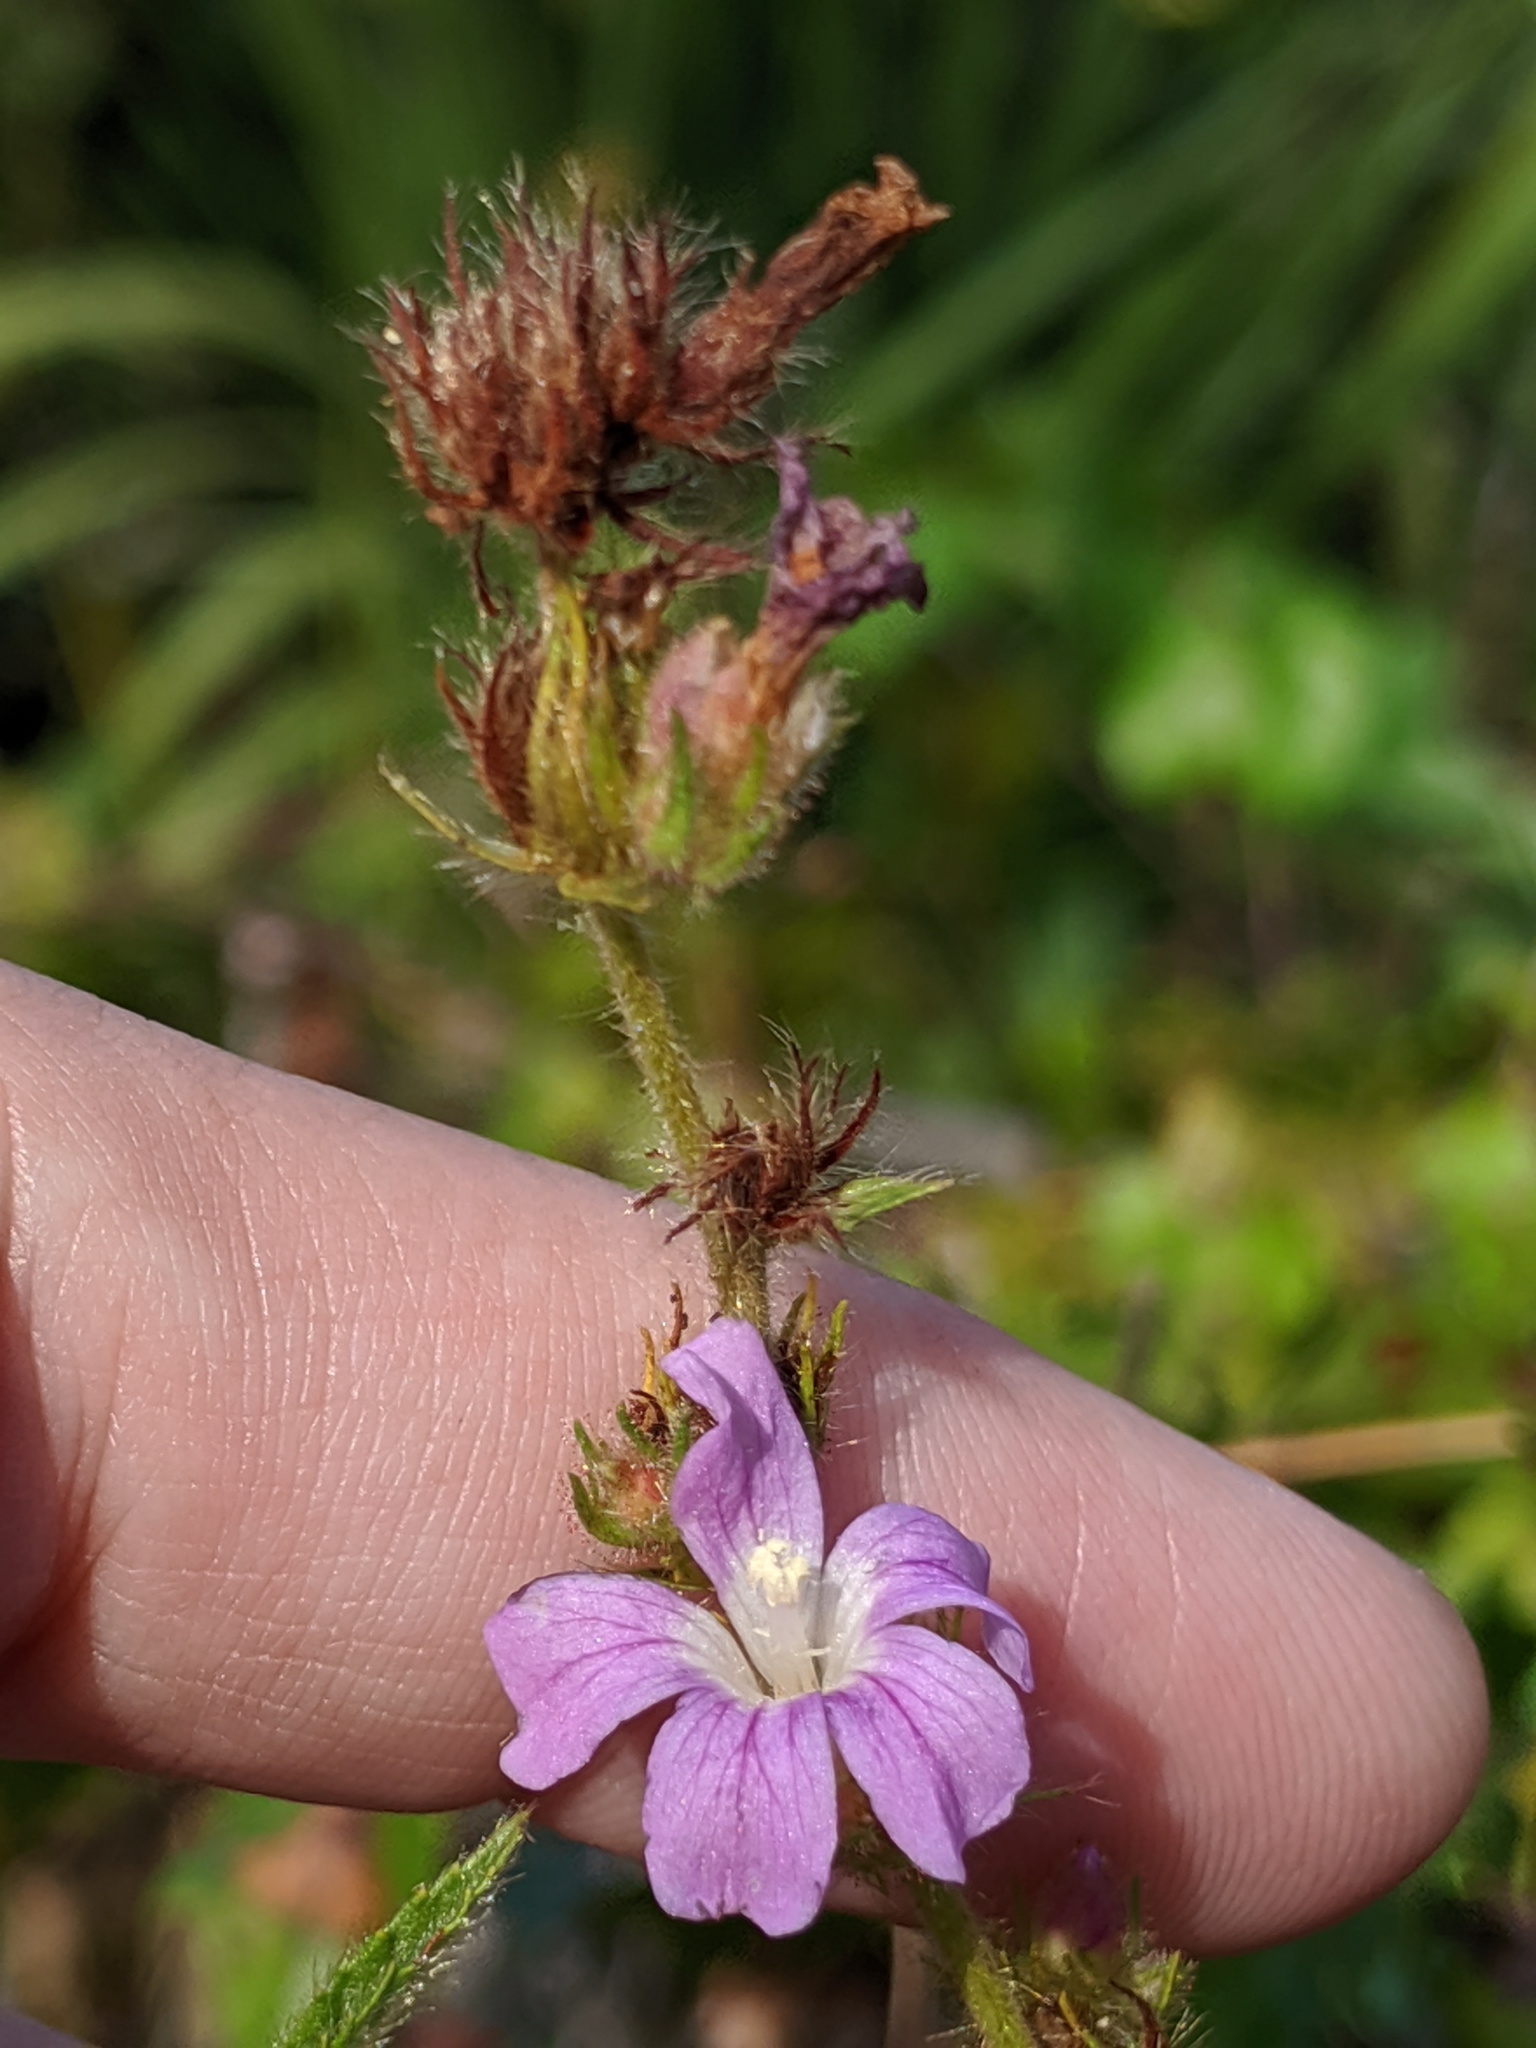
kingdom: Plantae
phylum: Tracheophyta
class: Magnoliopsida
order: Malvales
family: Malvaceae
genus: Melochia
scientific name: Melochia spicata
